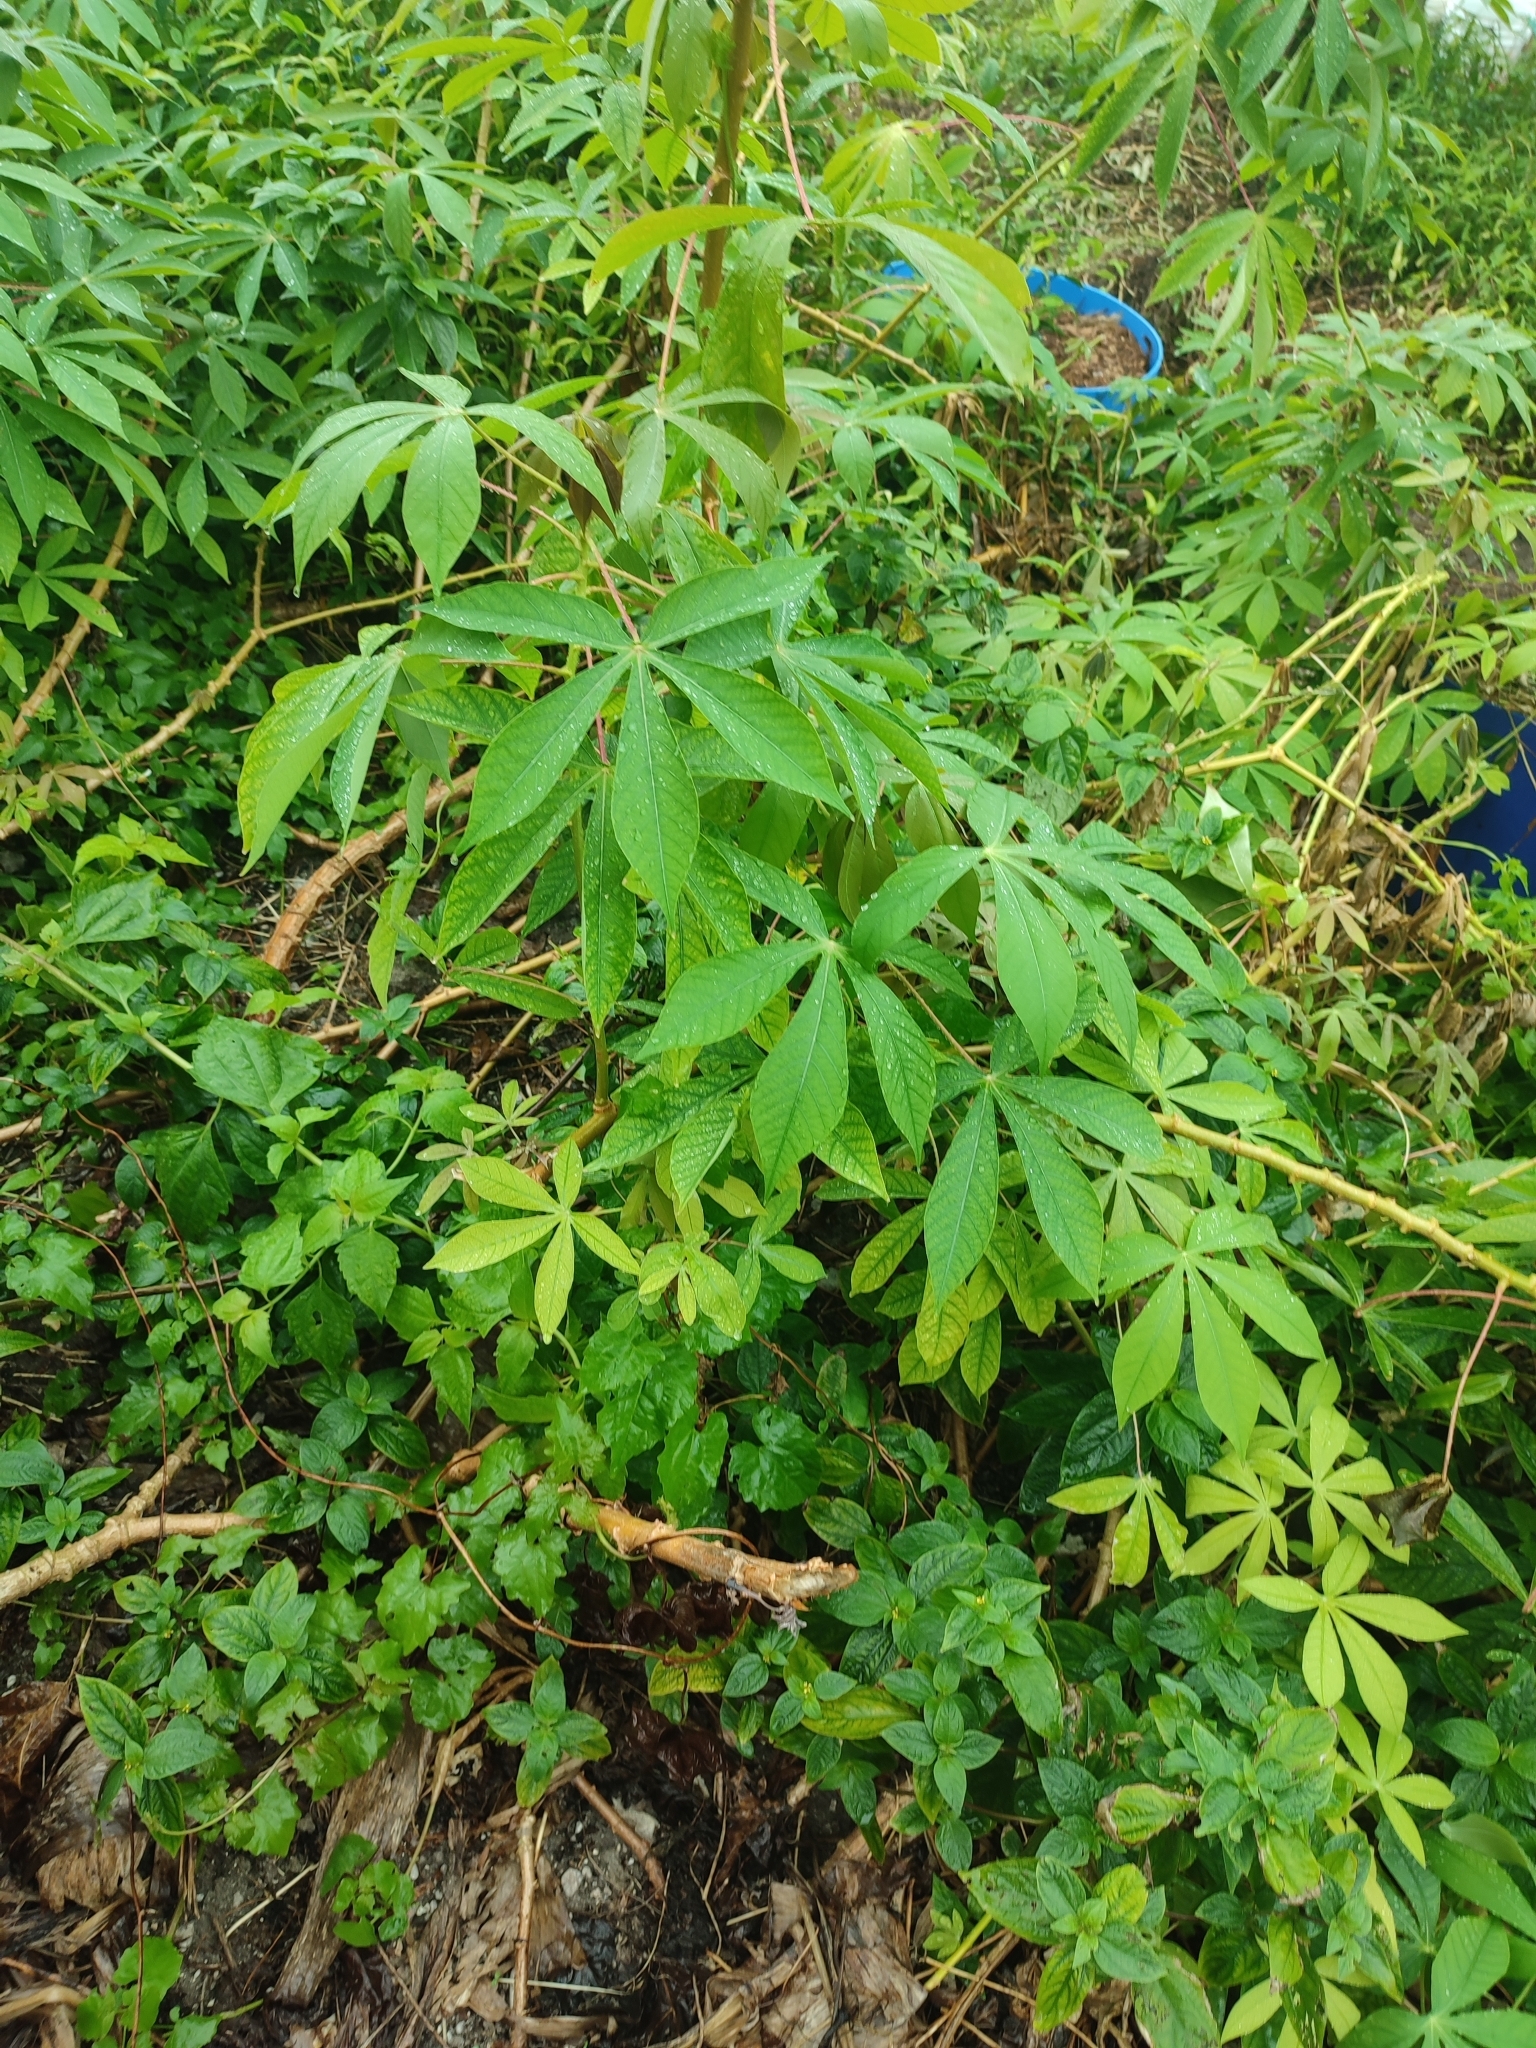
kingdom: Plantae
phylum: Tracheophyta
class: Magnoliopsida
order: Malpighiales
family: Euphorbiaceae
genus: Manihot
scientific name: Manihot esculenta
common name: Cassava
